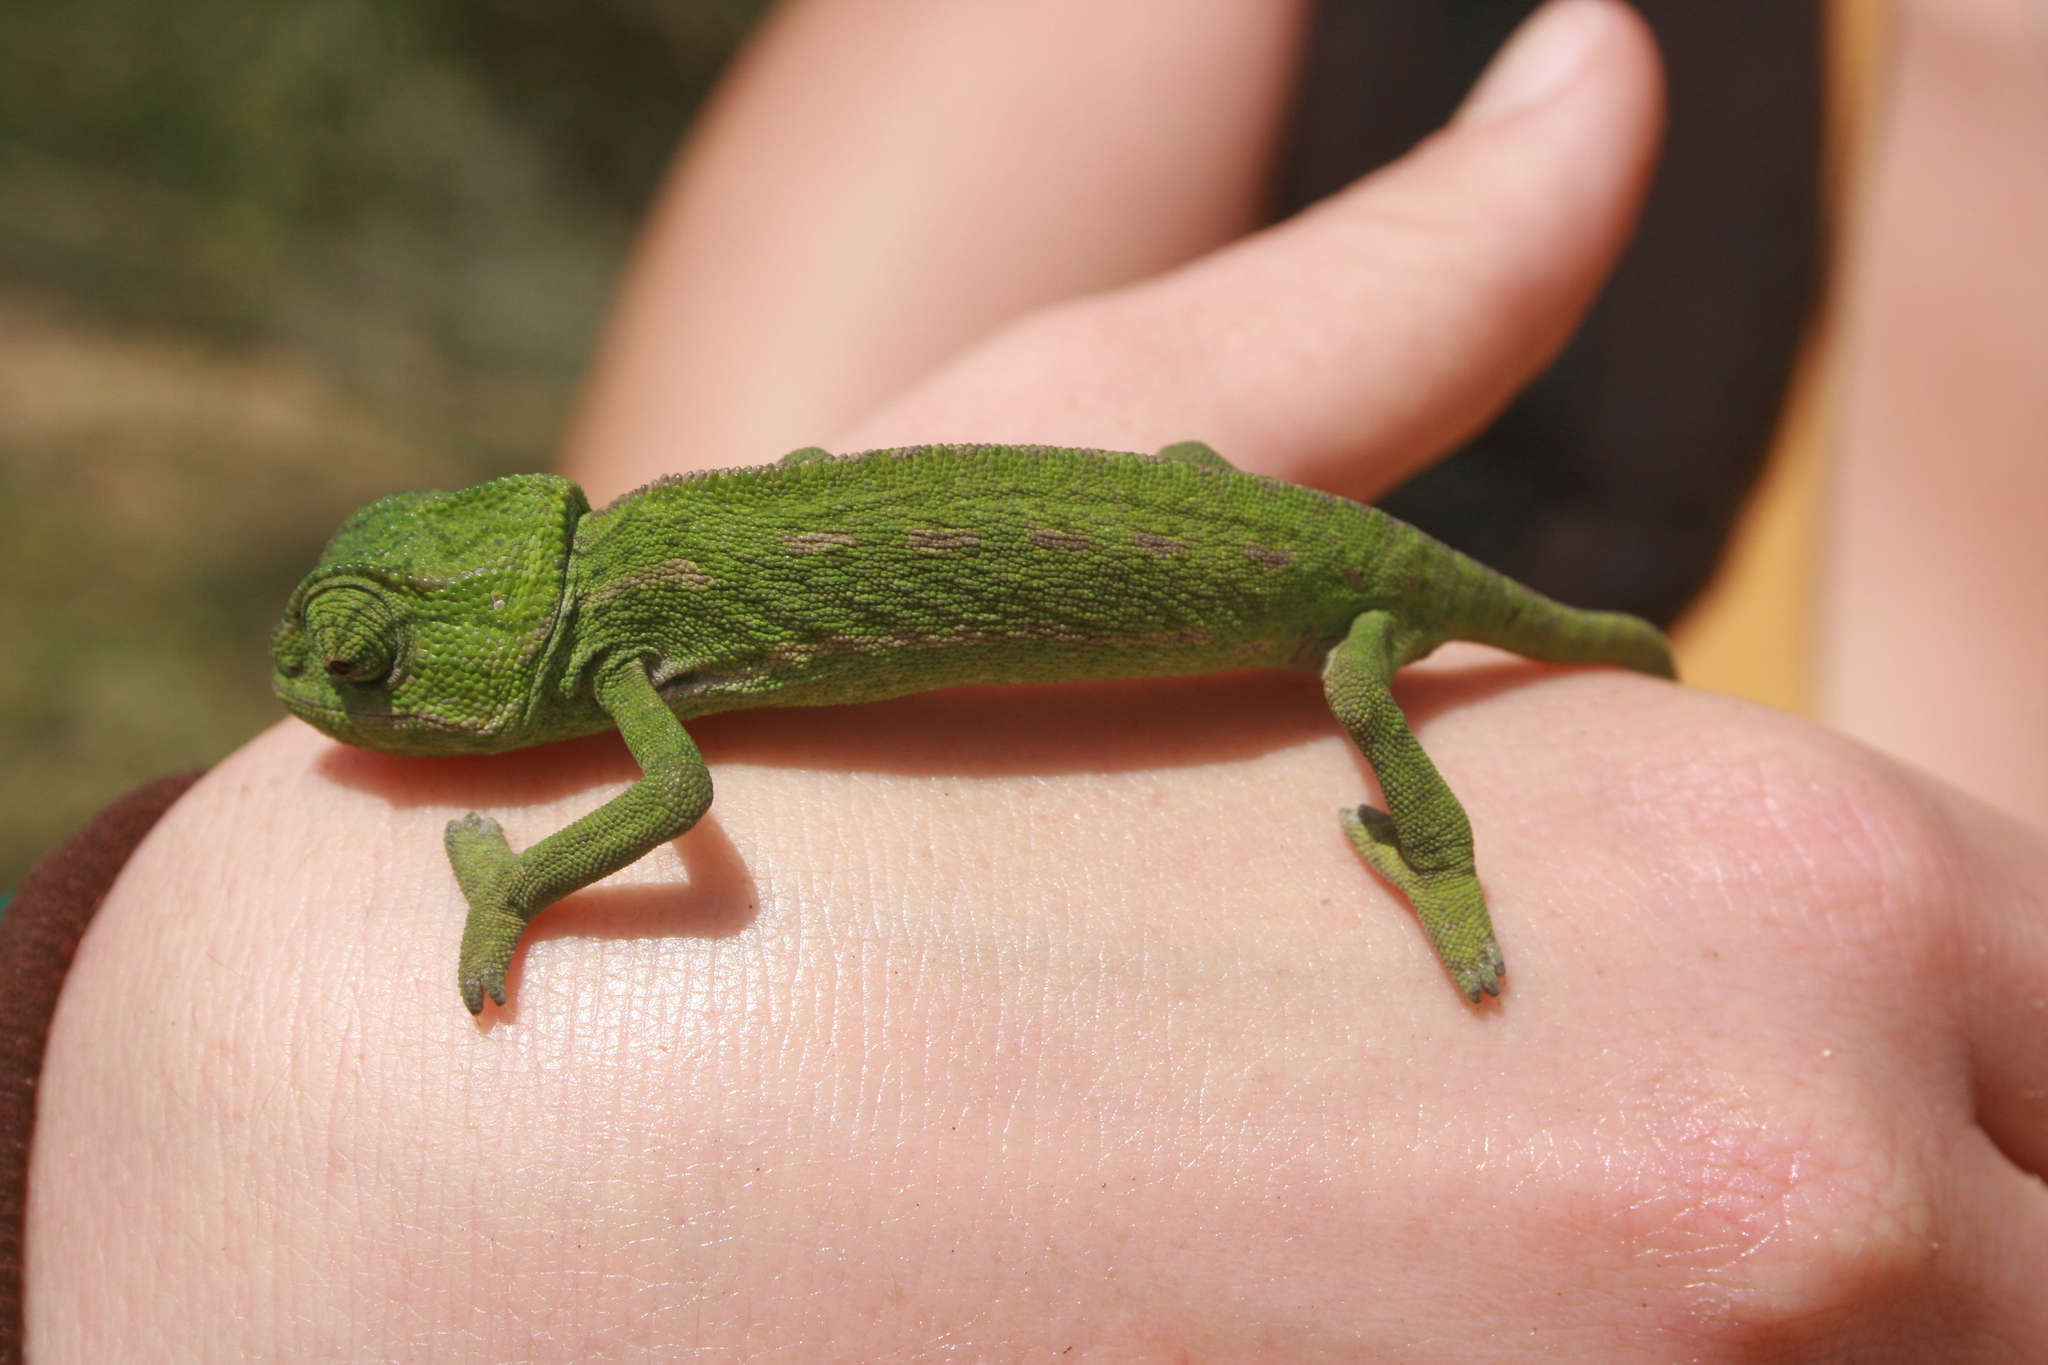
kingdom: Animalia
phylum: Chordata
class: Squamata
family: Chamaeleonidae
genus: Chamaeleo
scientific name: Chamaeleo chamaeleon
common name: Mediterranean chameleon
